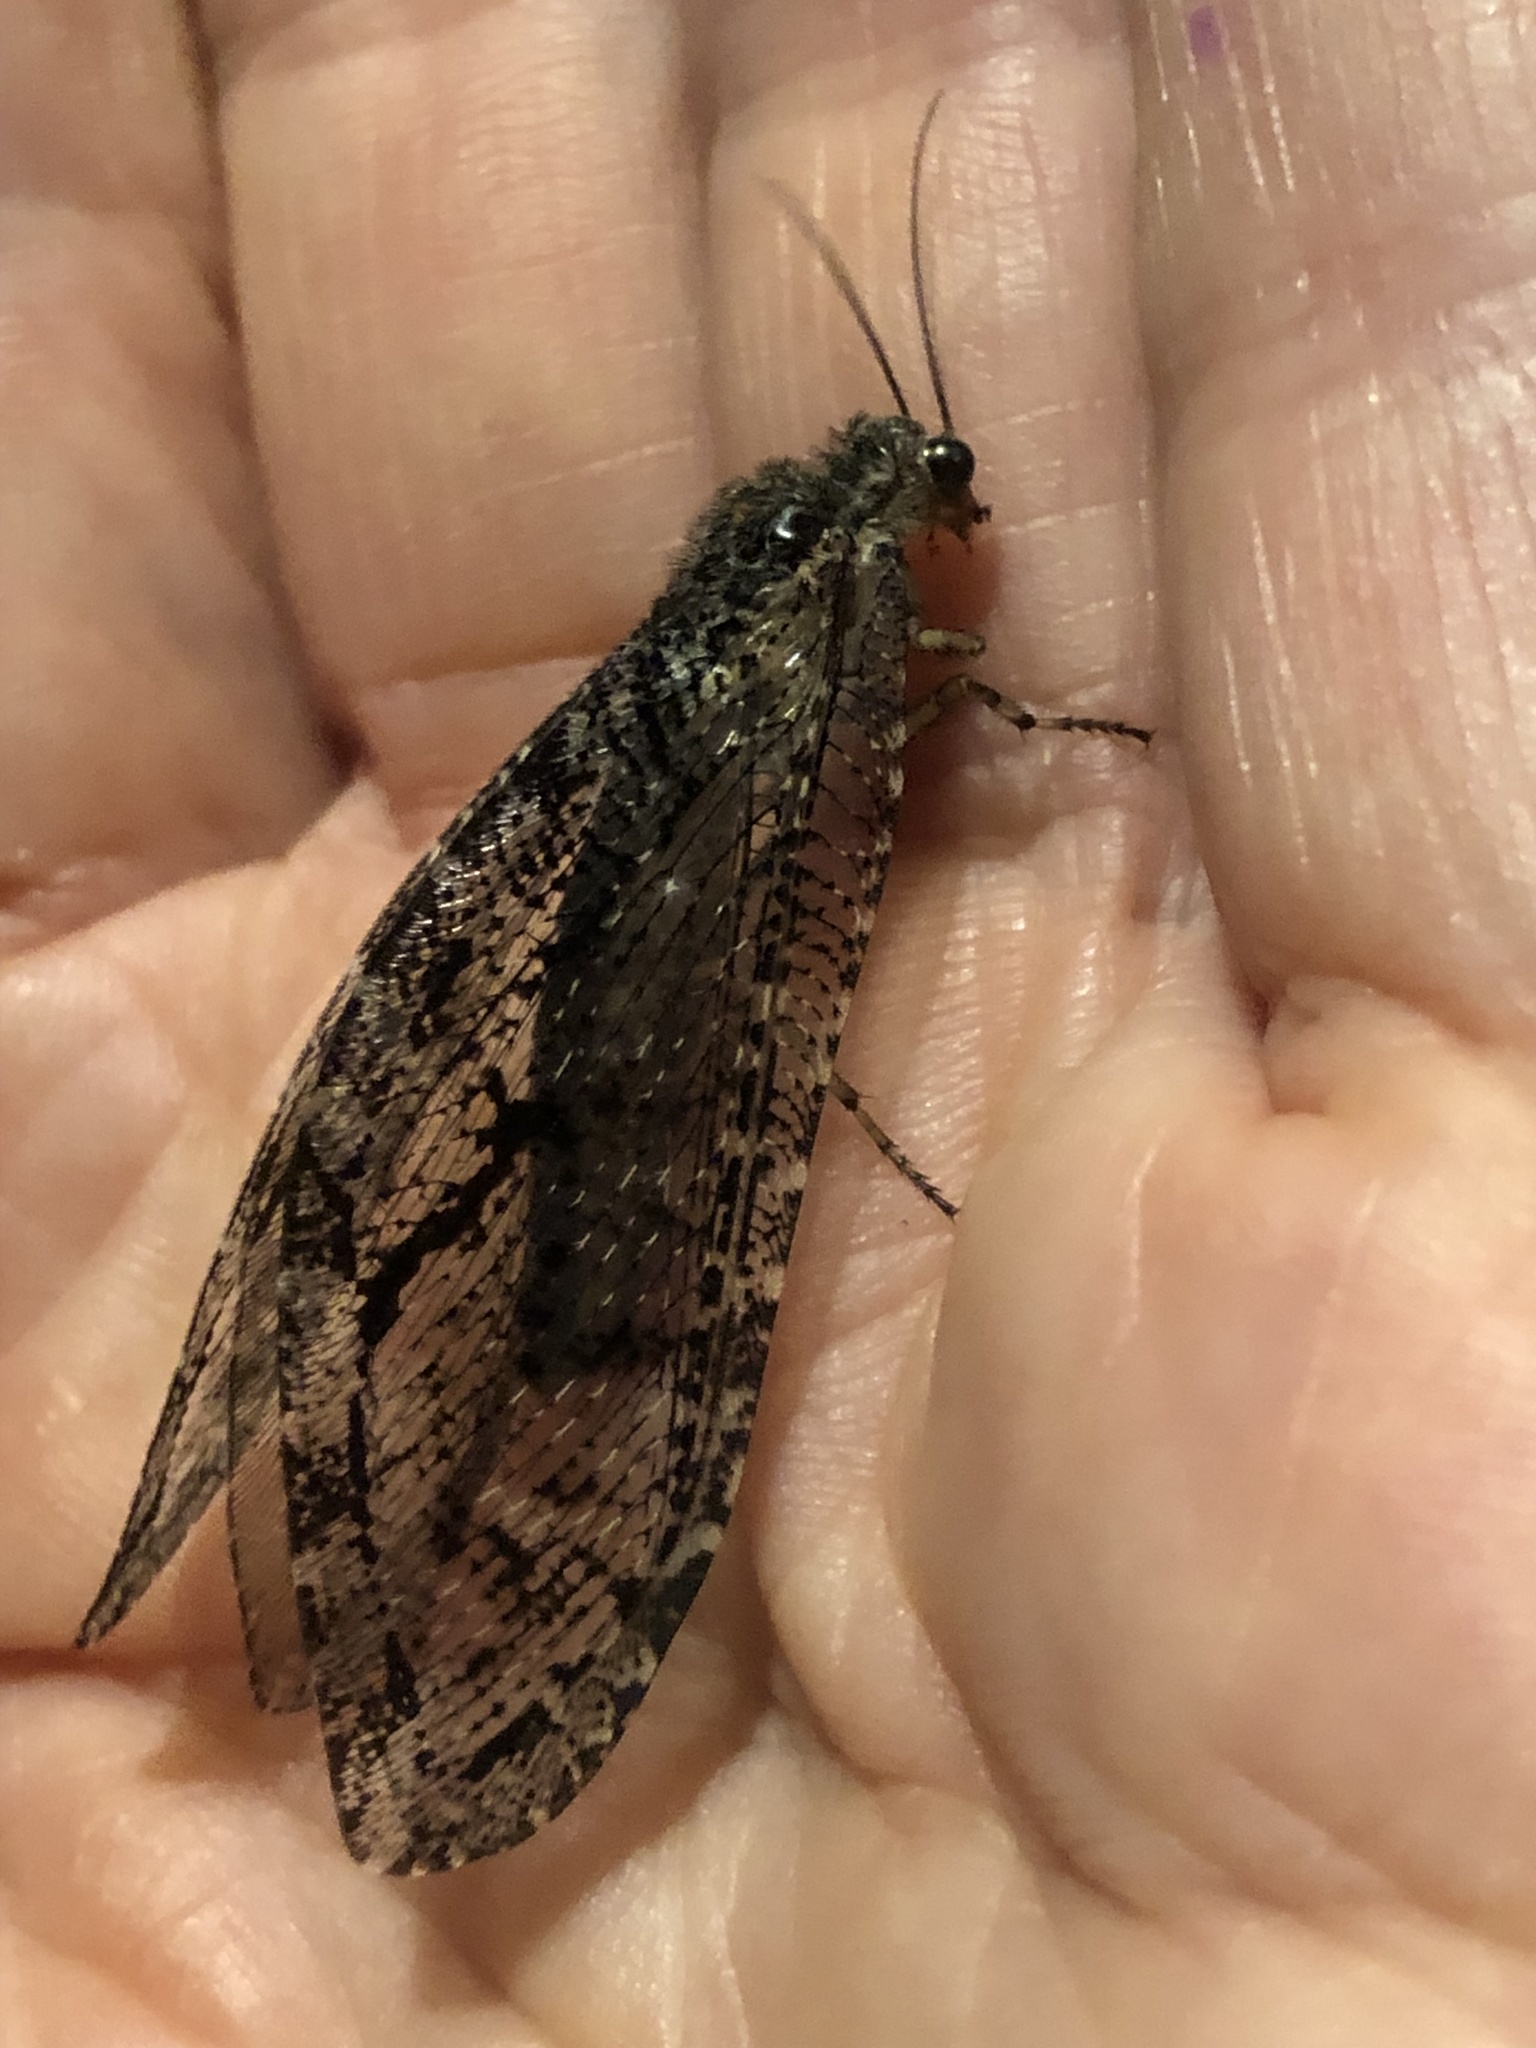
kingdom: Animalia
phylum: Arthropoda
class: Insecta
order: Neuroptera
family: Ithonidae
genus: Polystoechotes
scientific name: Polystoechotes punctata
